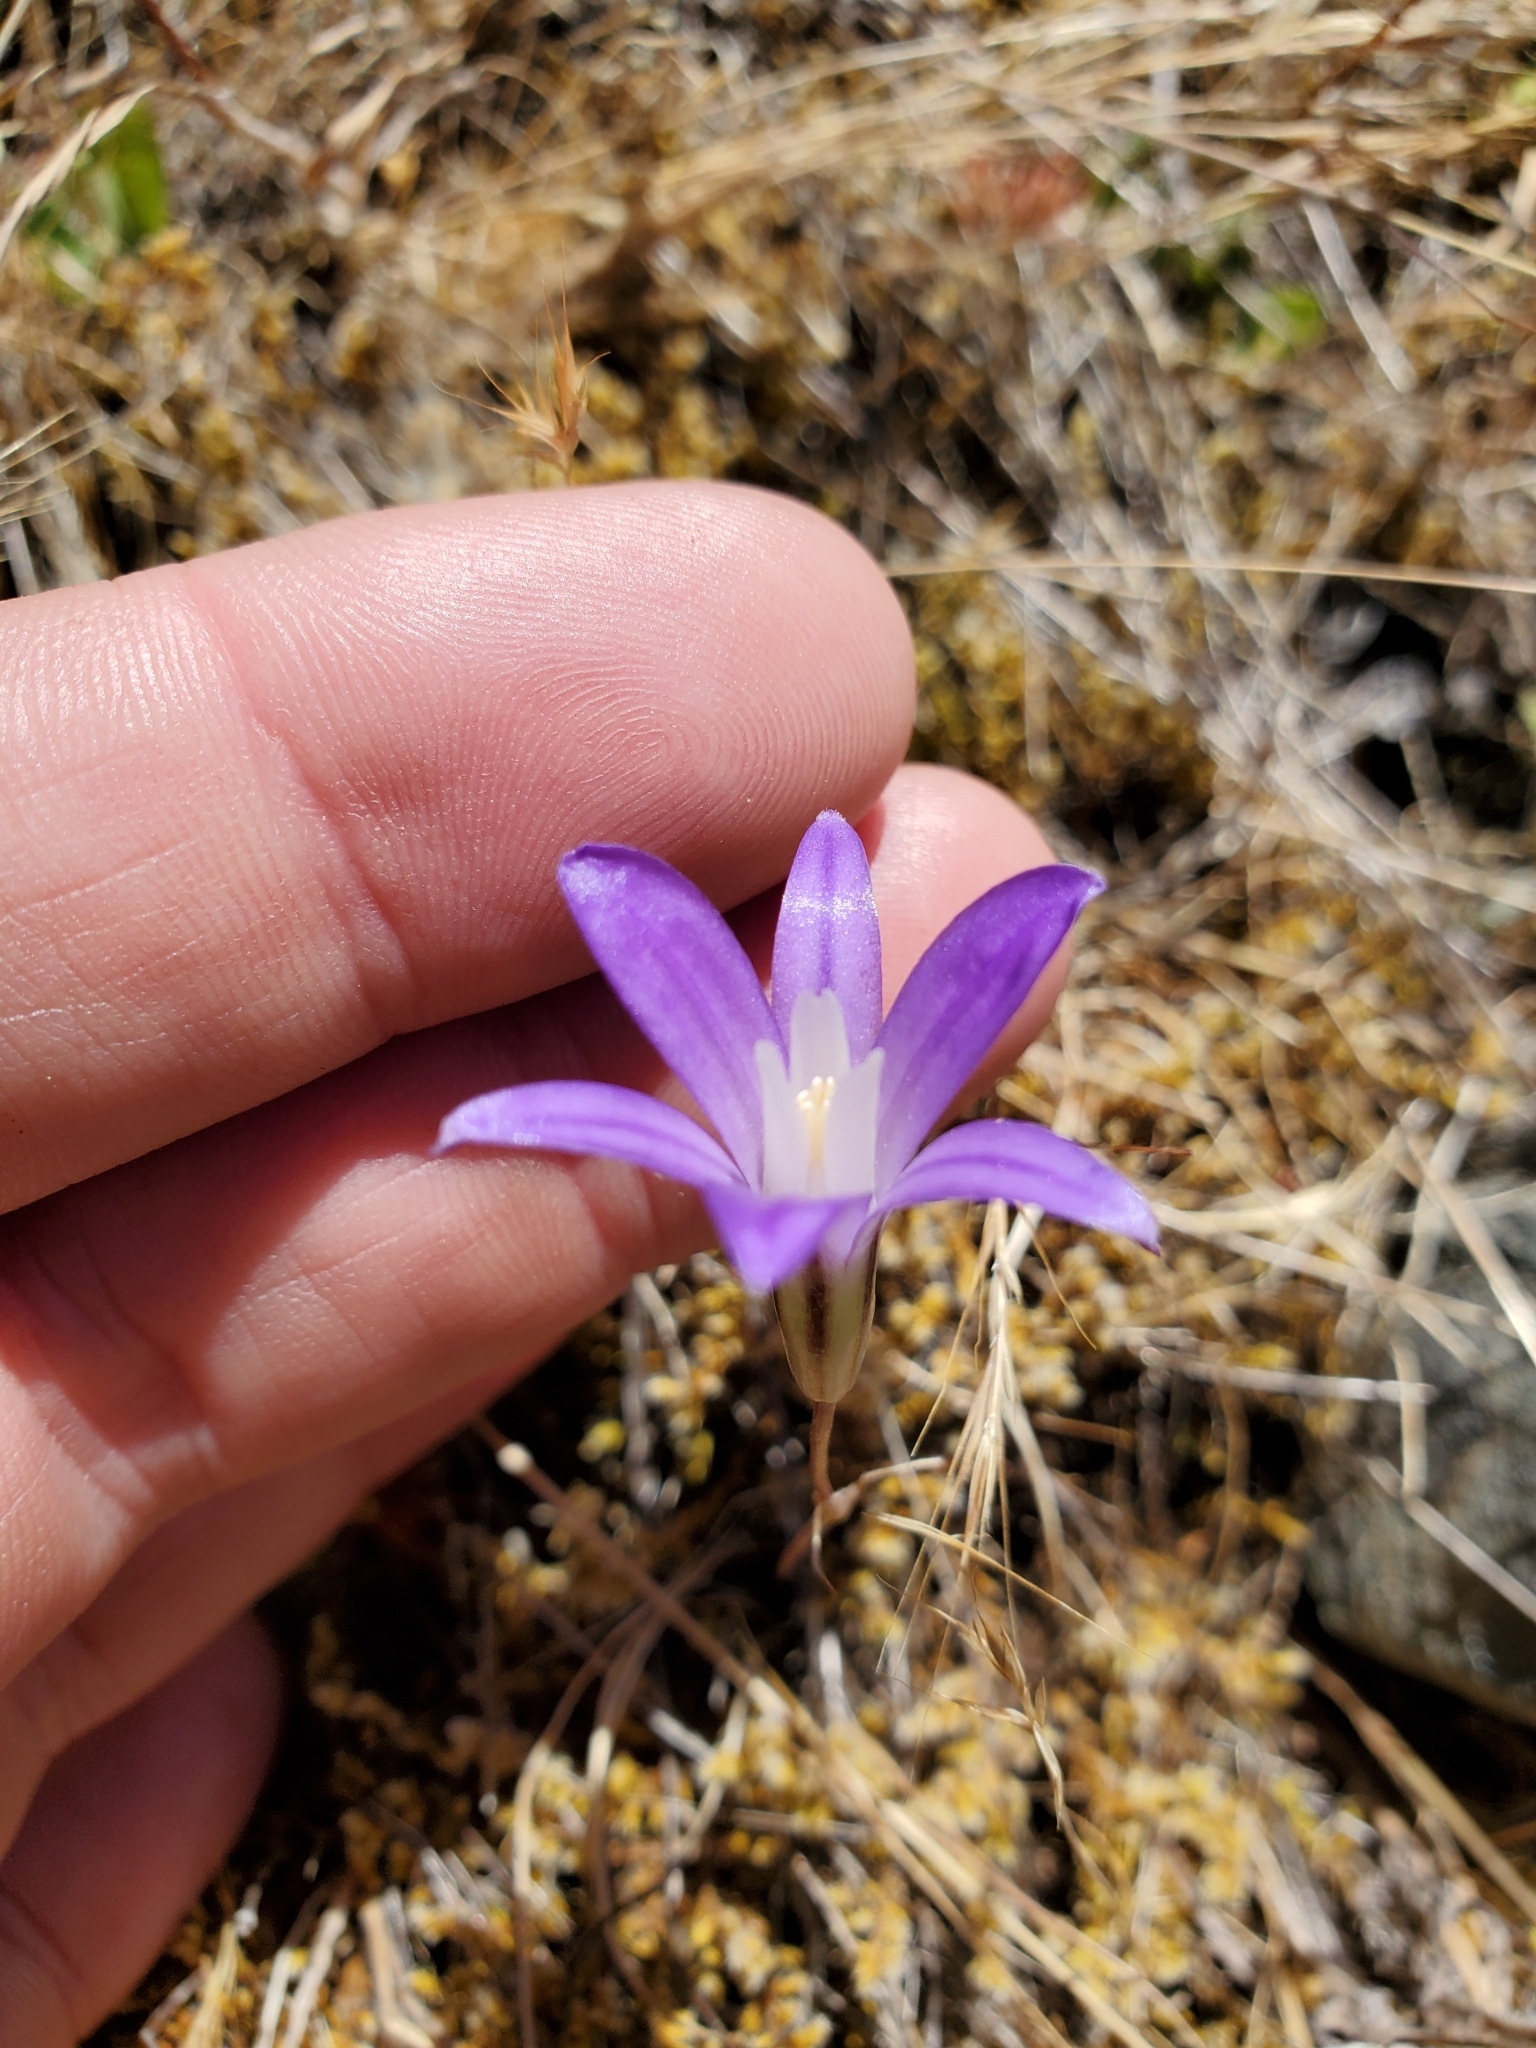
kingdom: Plantae
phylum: Tracheophyta
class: Liliopsida
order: Asparagales
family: Asparagaceae
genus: Brodiaea
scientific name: Brodiaea coronaria
